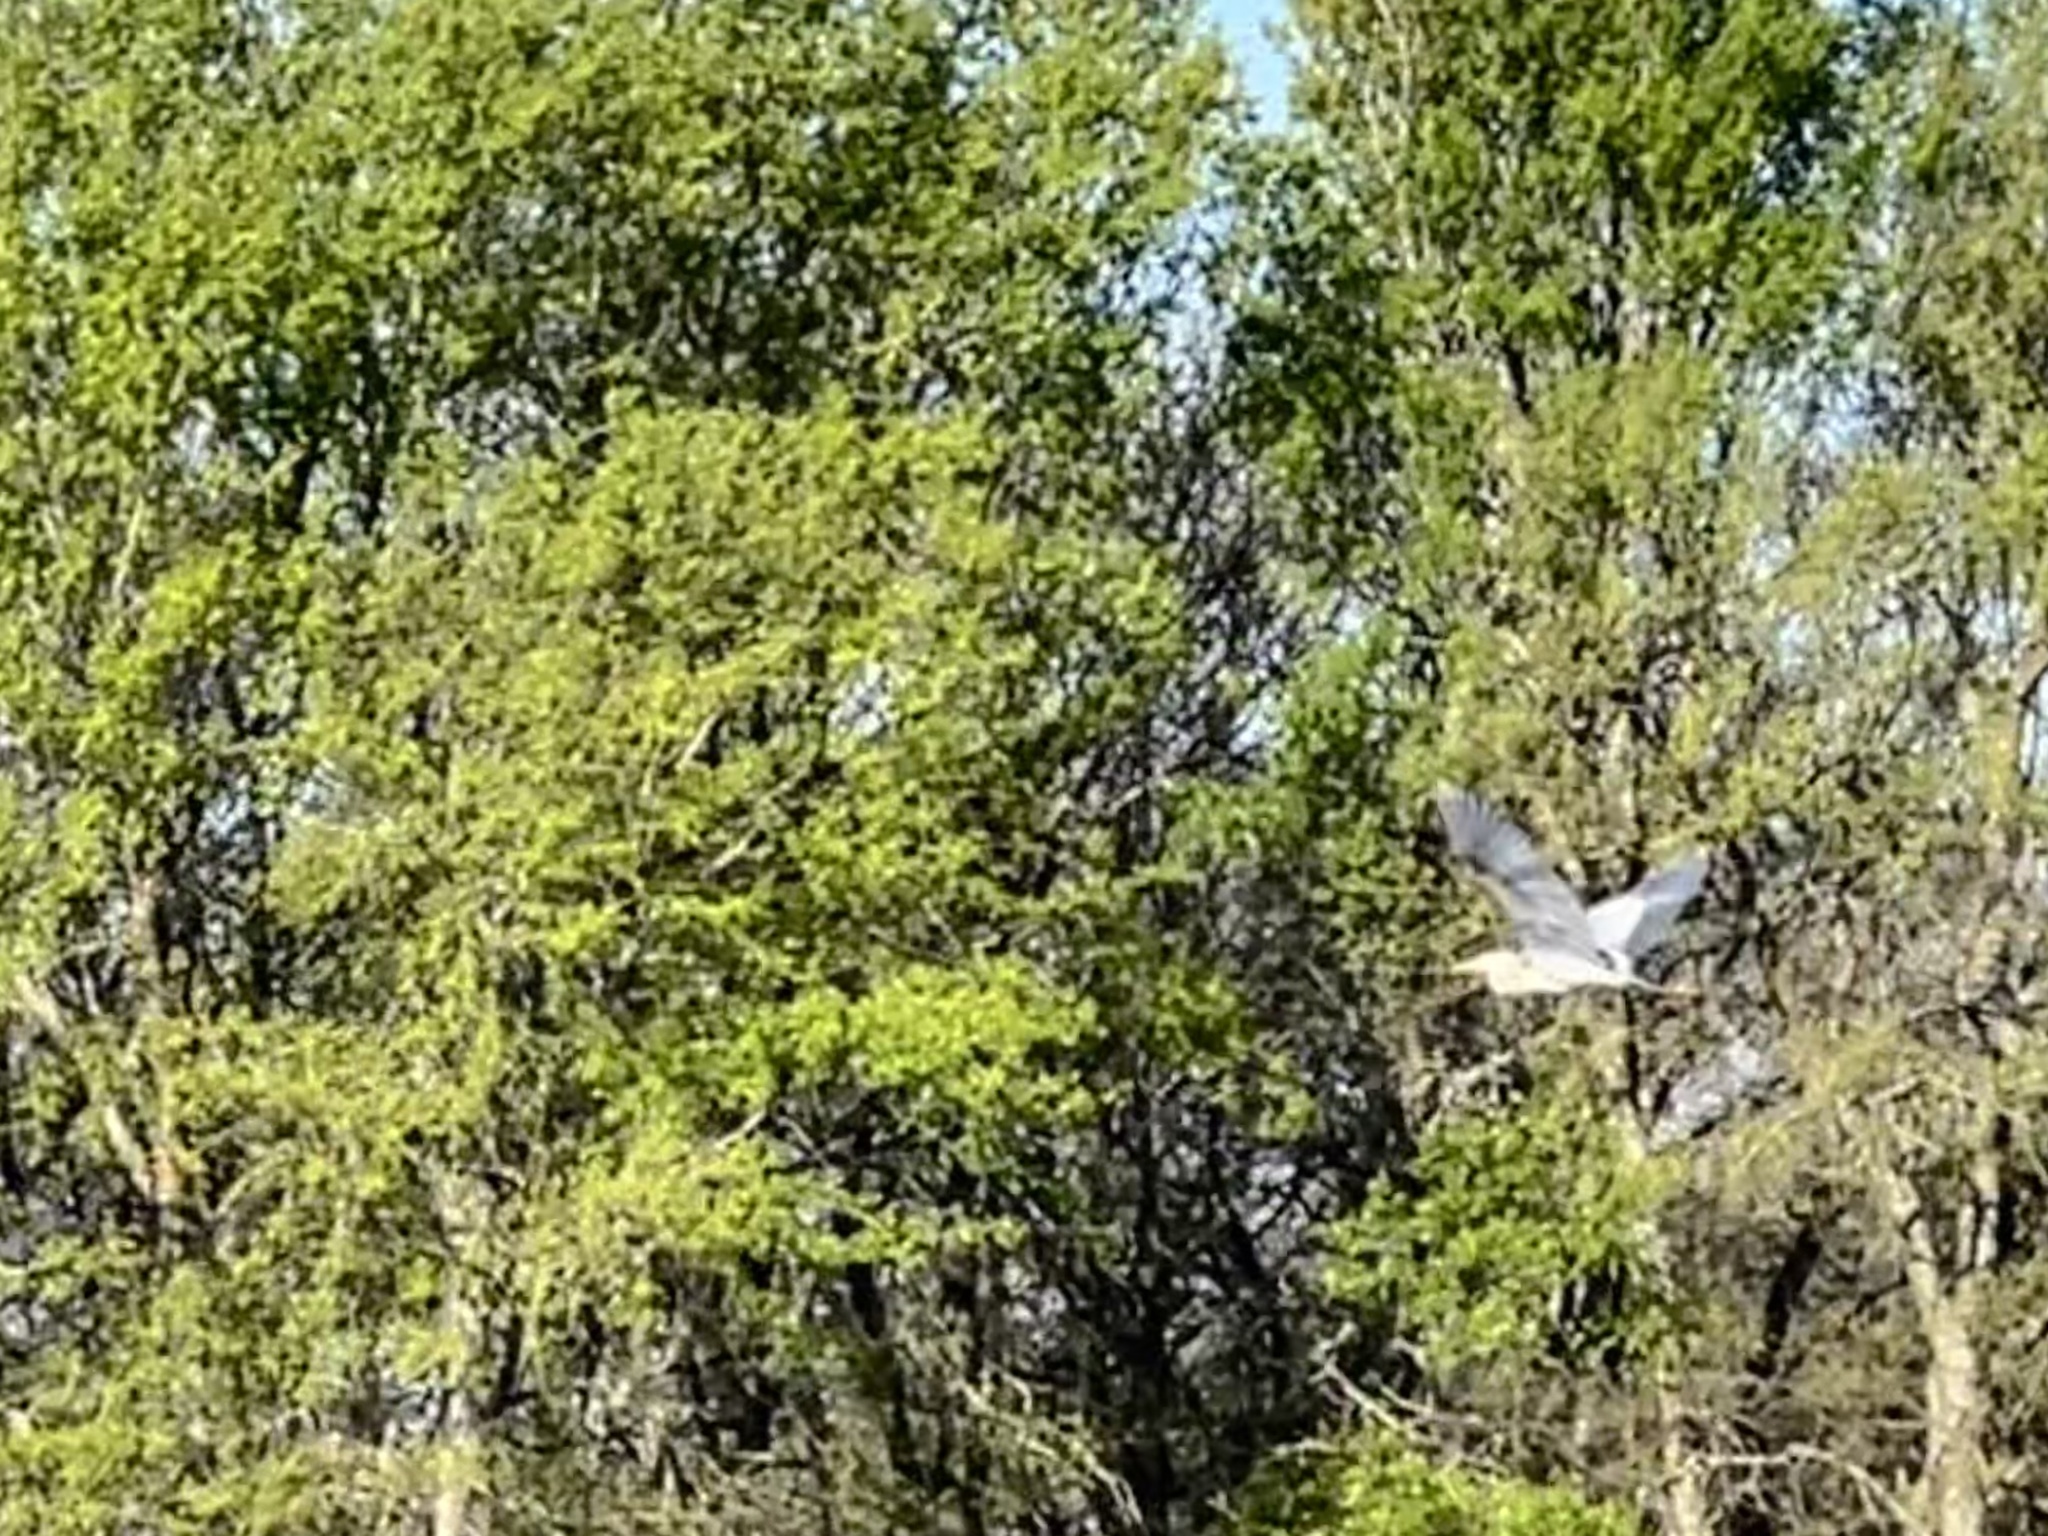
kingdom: Animalia
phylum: Chordata
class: Aves
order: Pelecaniformes
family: Ardeidae
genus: Ardea
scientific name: Ardea herodias
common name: Great blue heron
